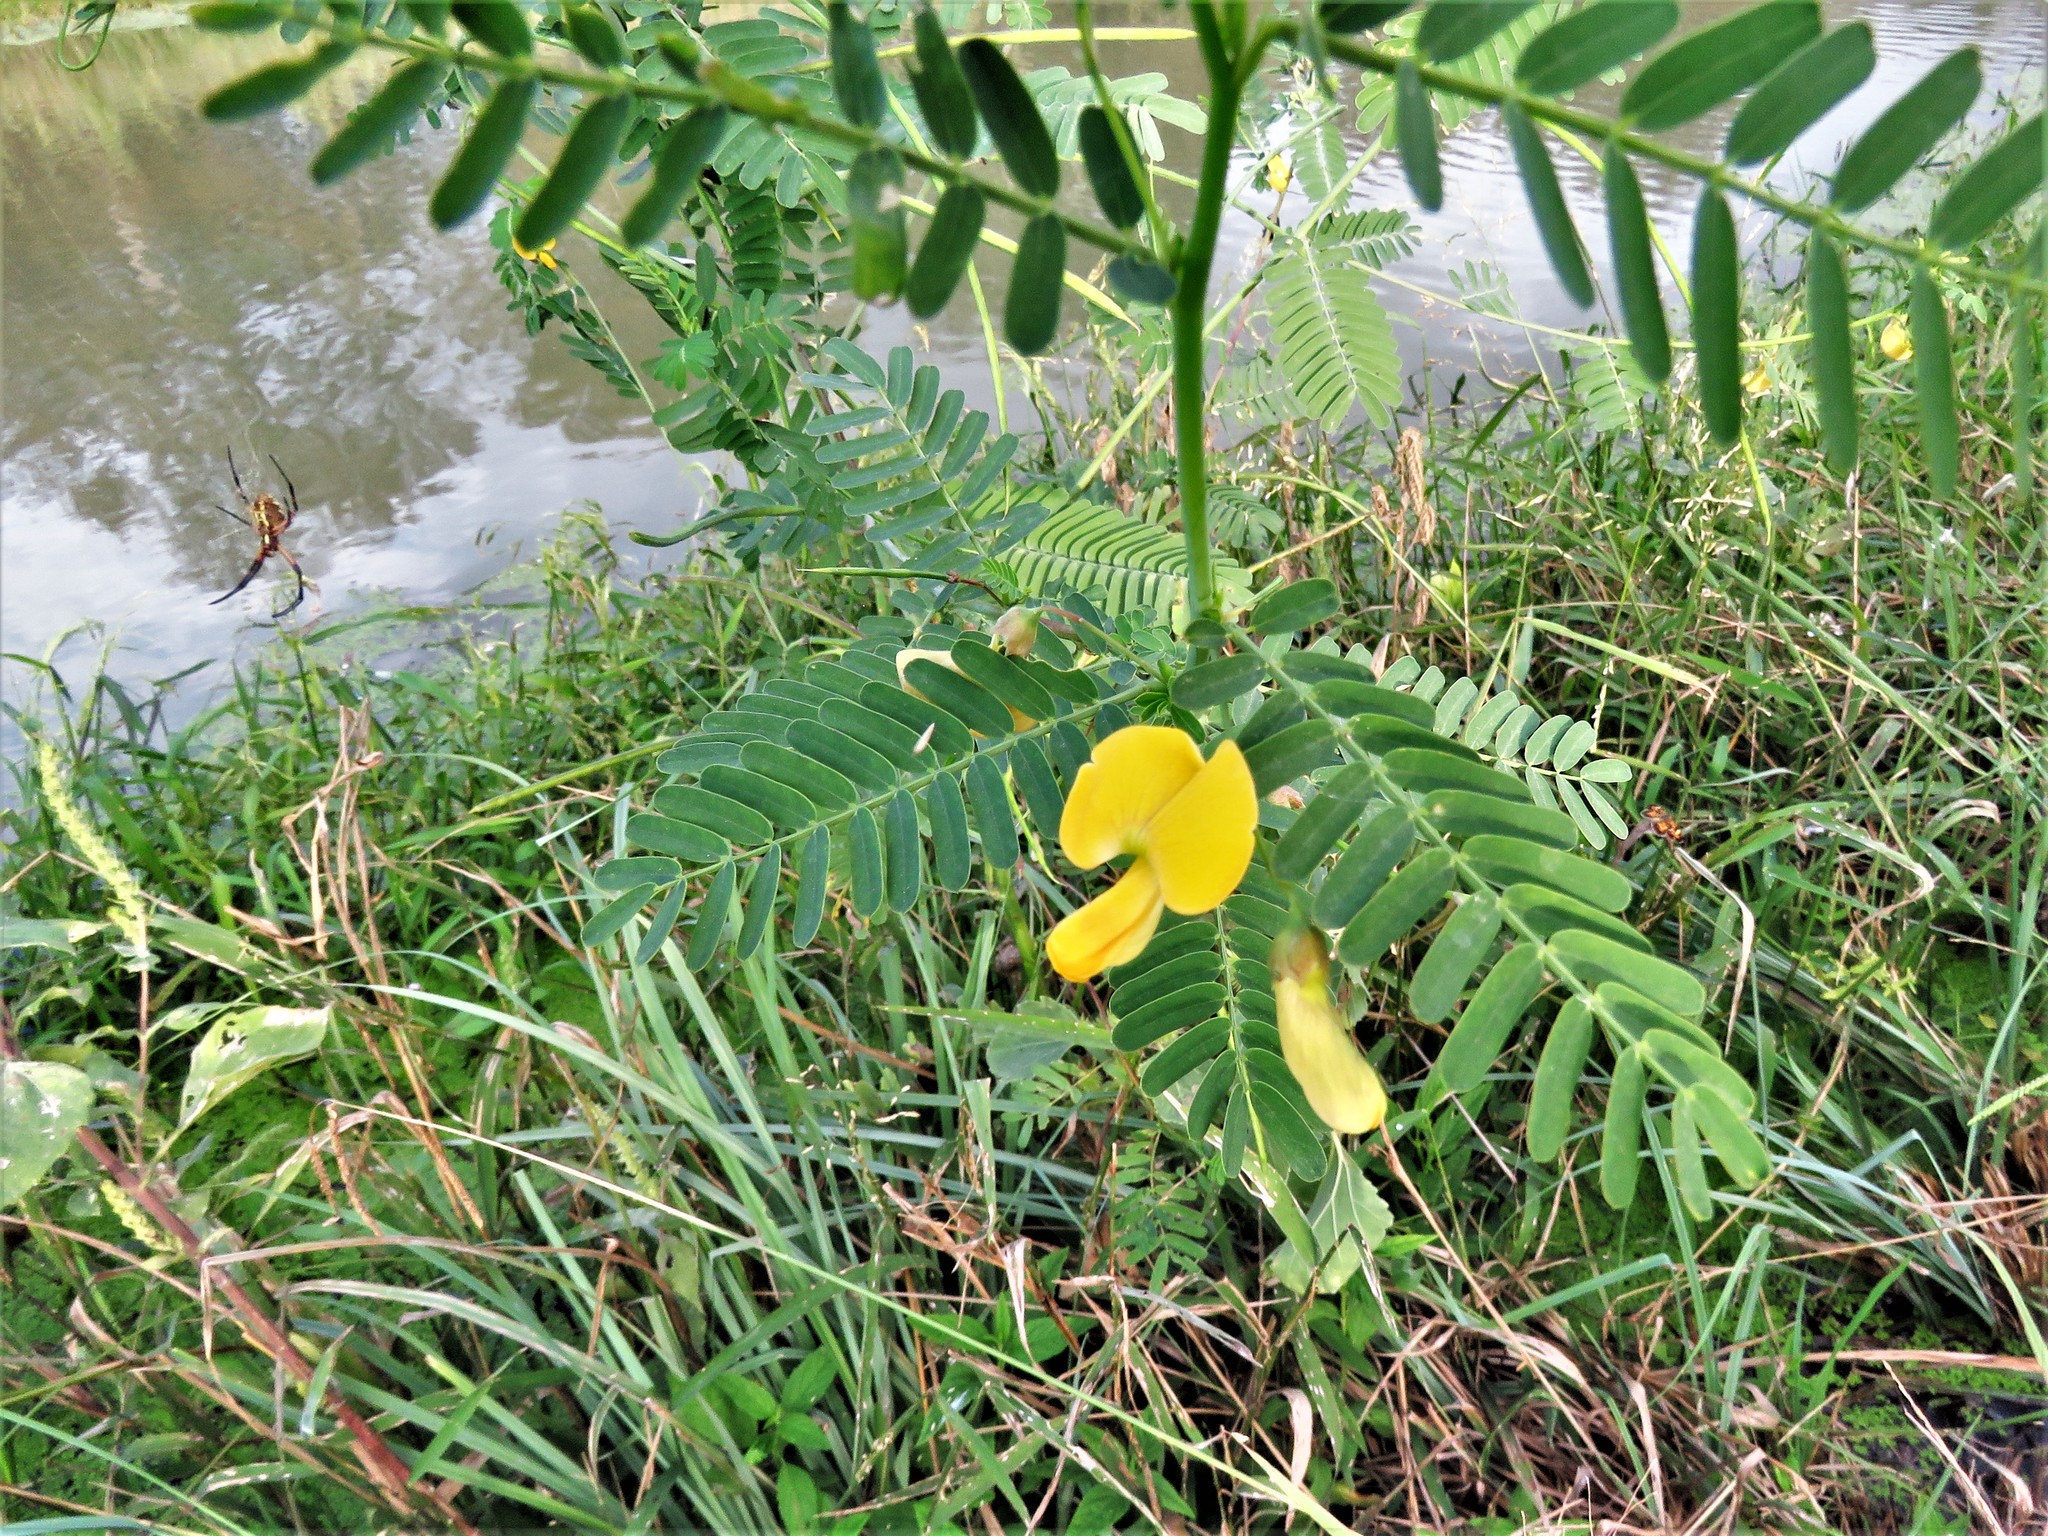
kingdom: Plantae
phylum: Tracheophyta
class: Magnoliopsida
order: Fabales
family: Fabaceae
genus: Sesbania
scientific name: Sesbania herbacea
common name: Bigpod sesbania
